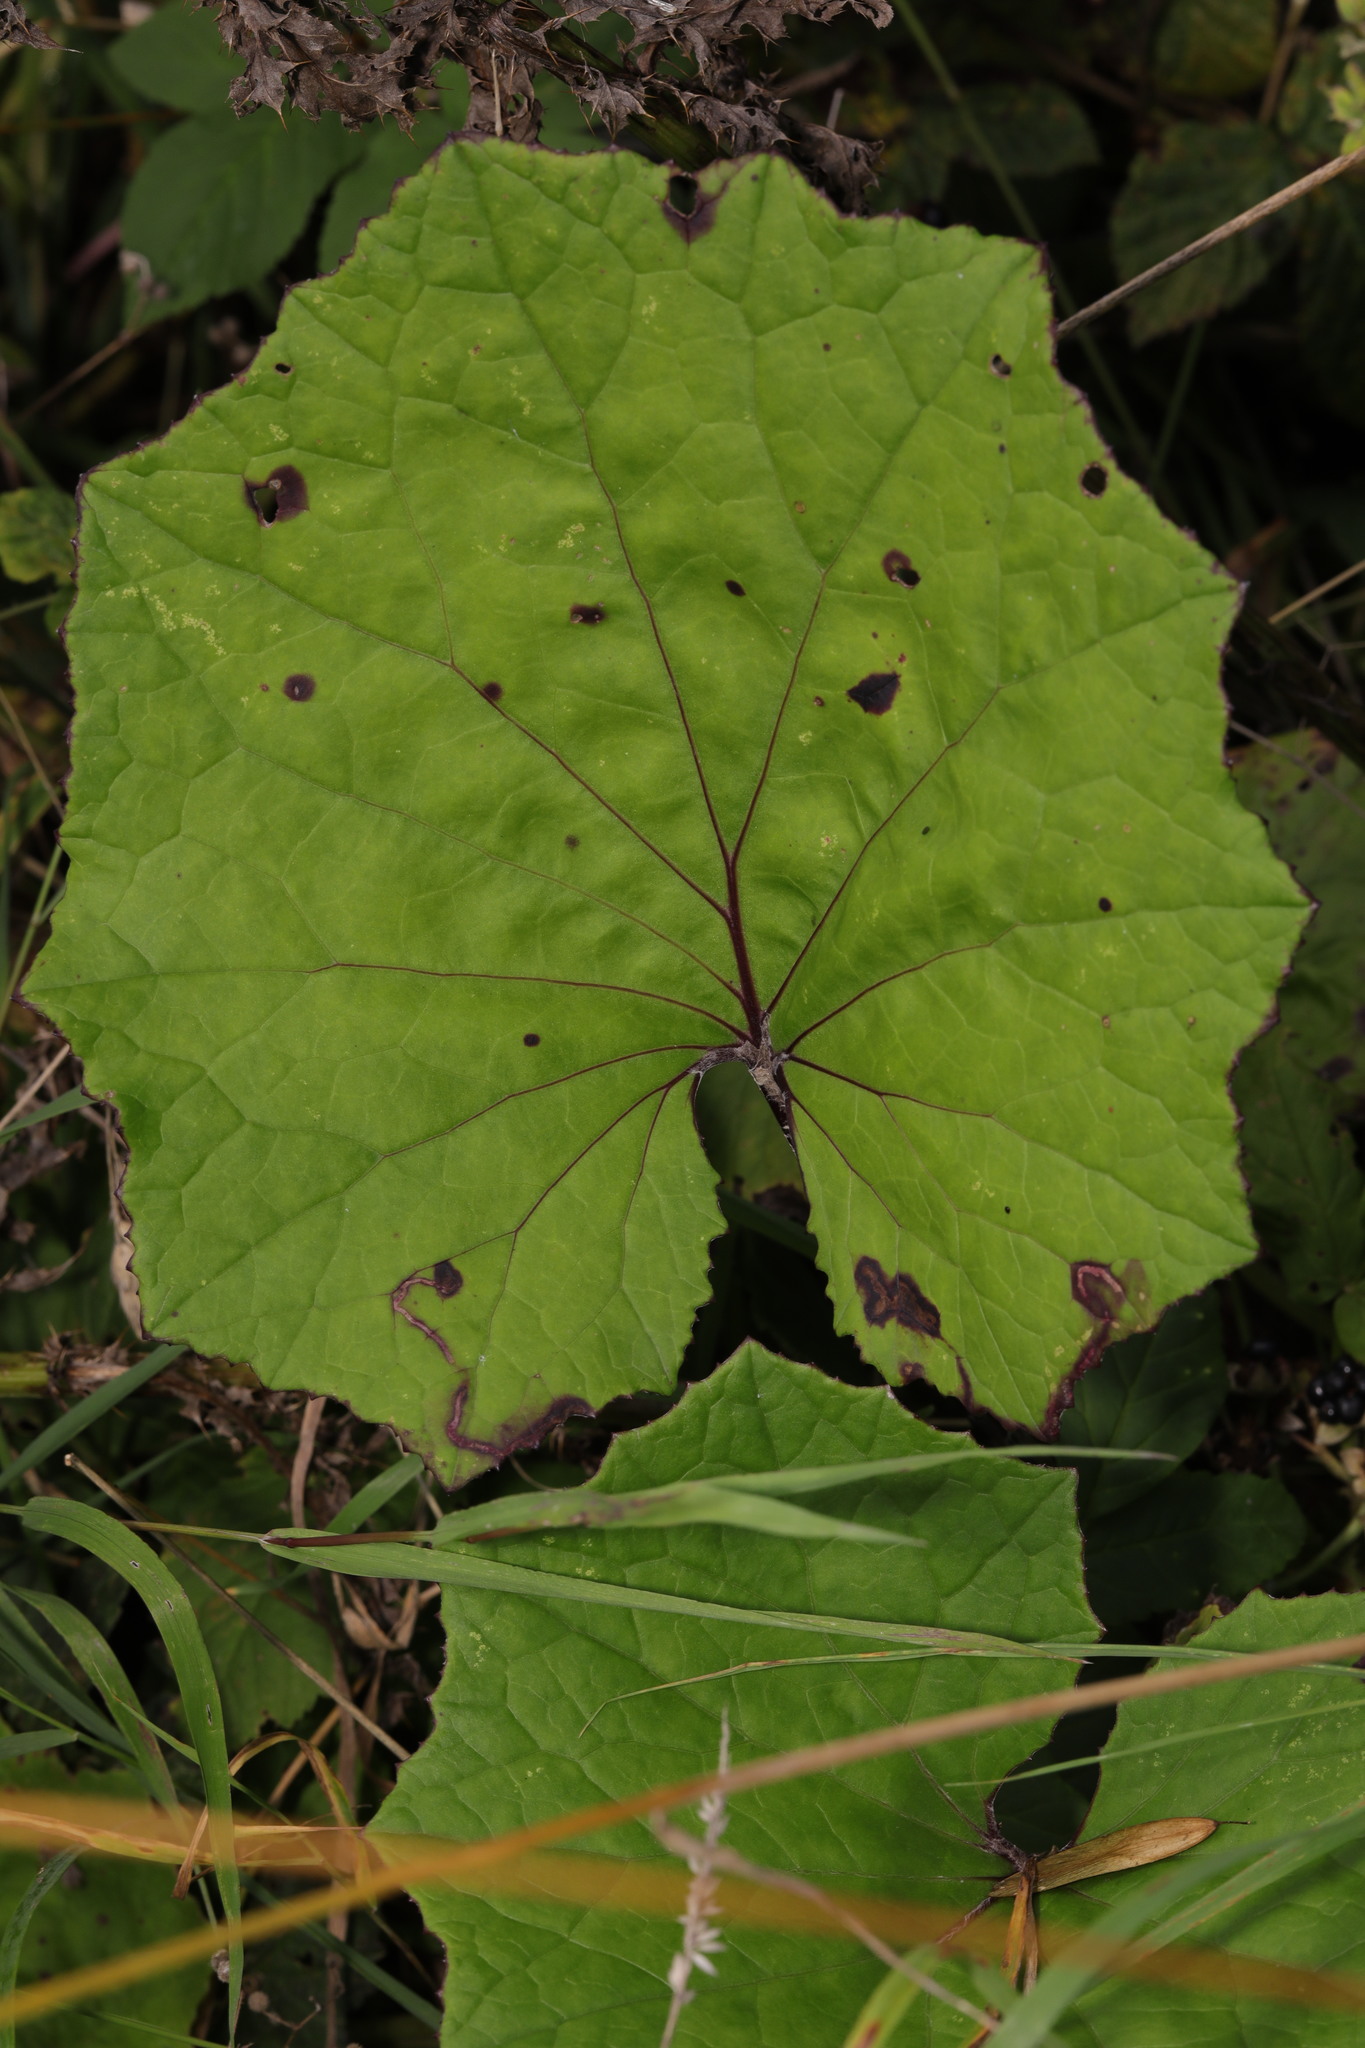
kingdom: Plantae
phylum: Tracheophyta
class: Magnoliopsida
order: Asterales
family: Asteraceae
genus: Tussilago
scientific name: Tussilago farfara
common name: Coltsfoot
